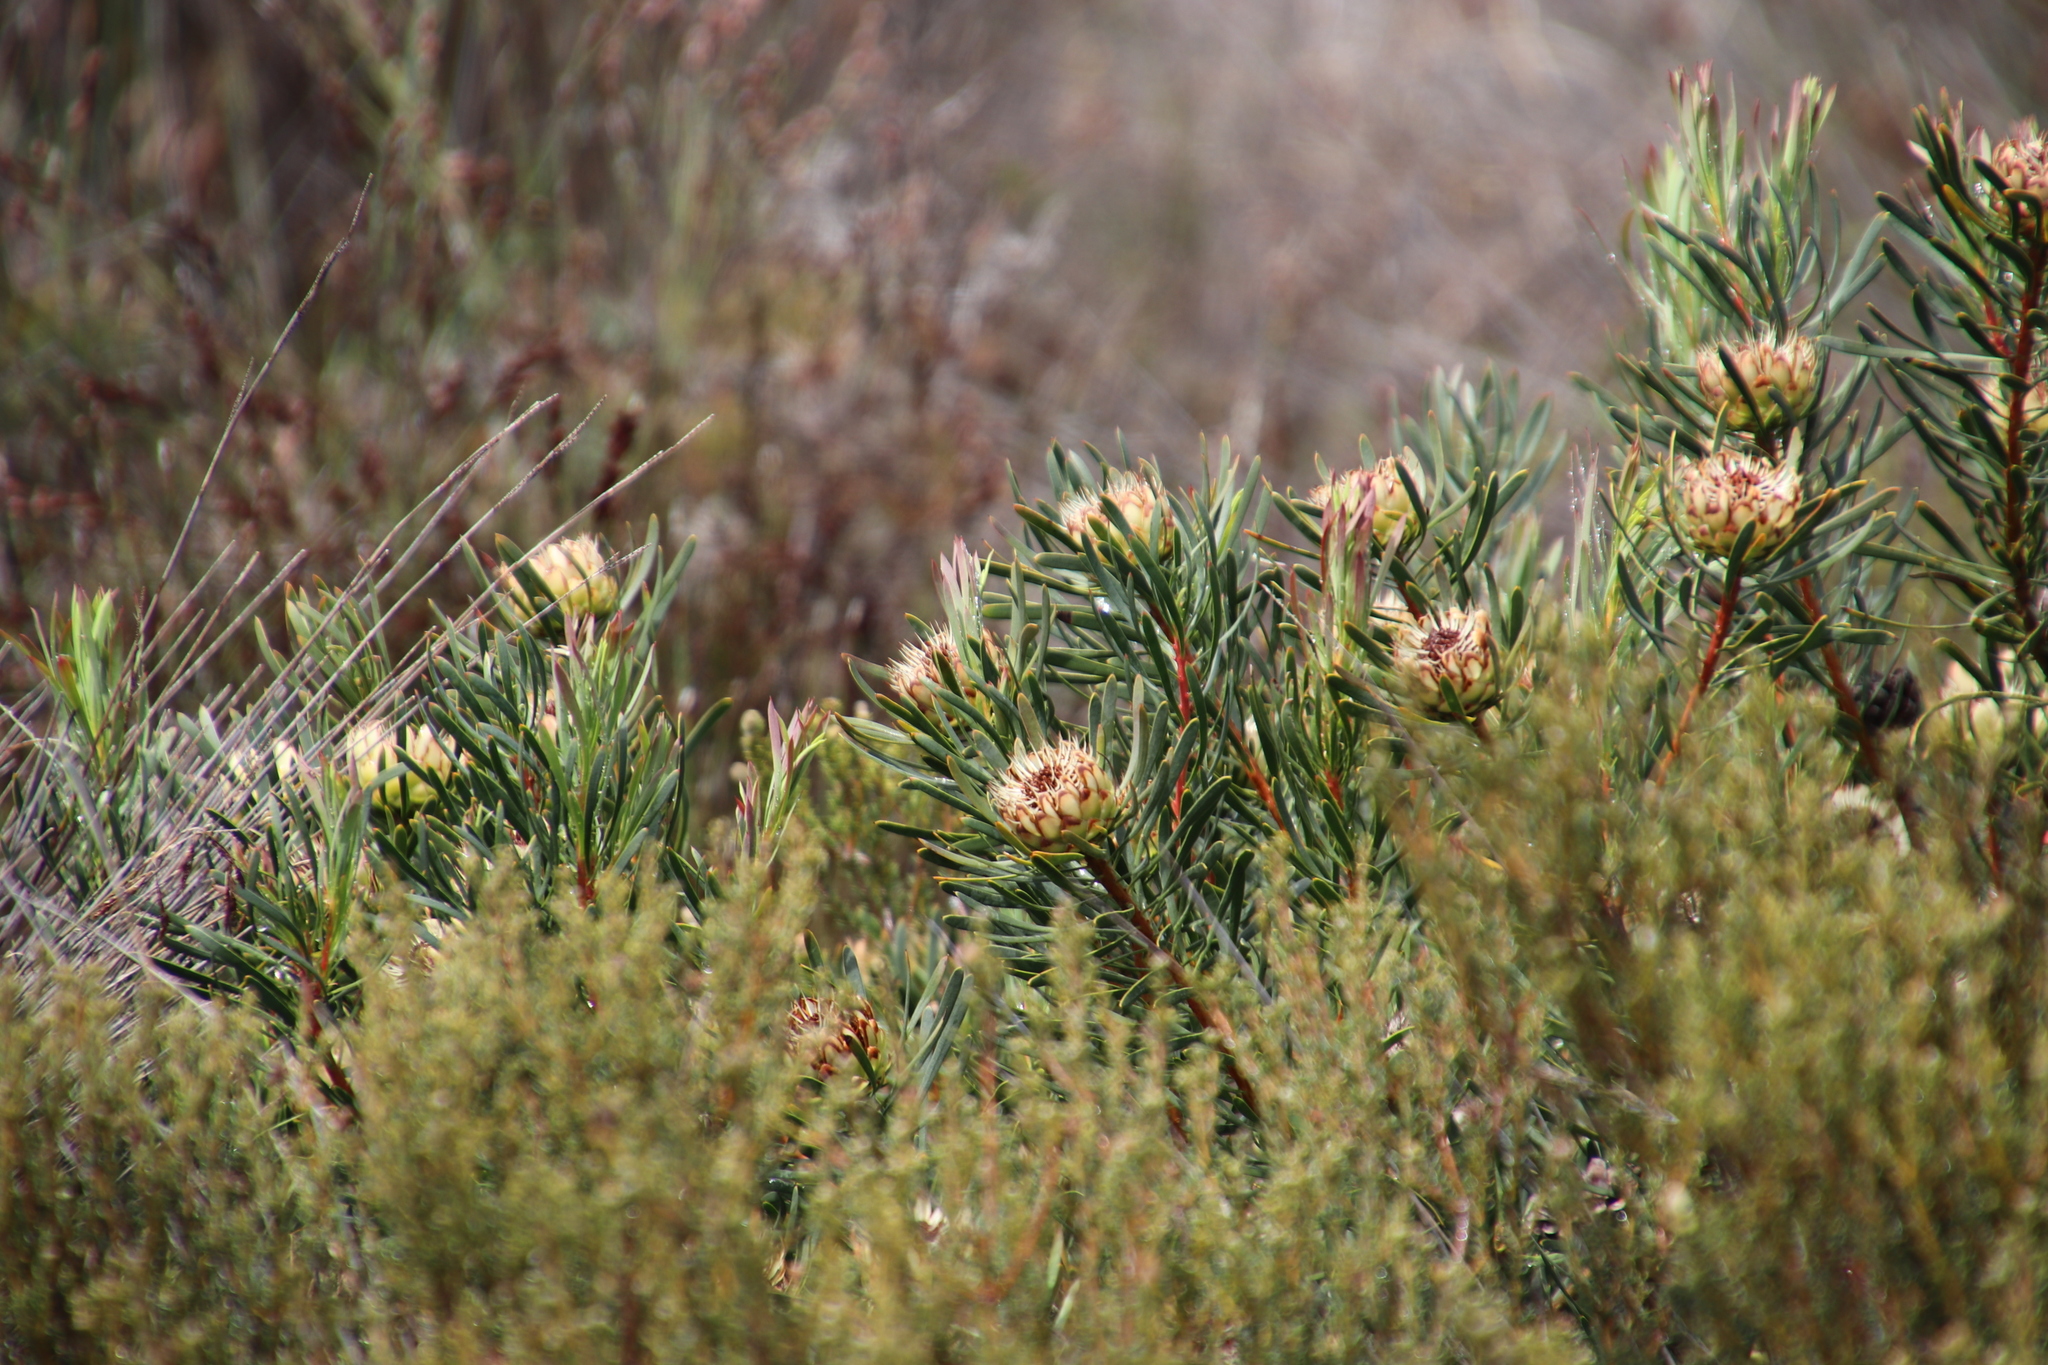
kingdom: Plantae
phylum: Tracheophyta
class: Magnoliopsida
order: Proteales
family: Proteaceae
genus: Protea
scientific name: Protea scolymocephala
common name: Thistle sugarbush
